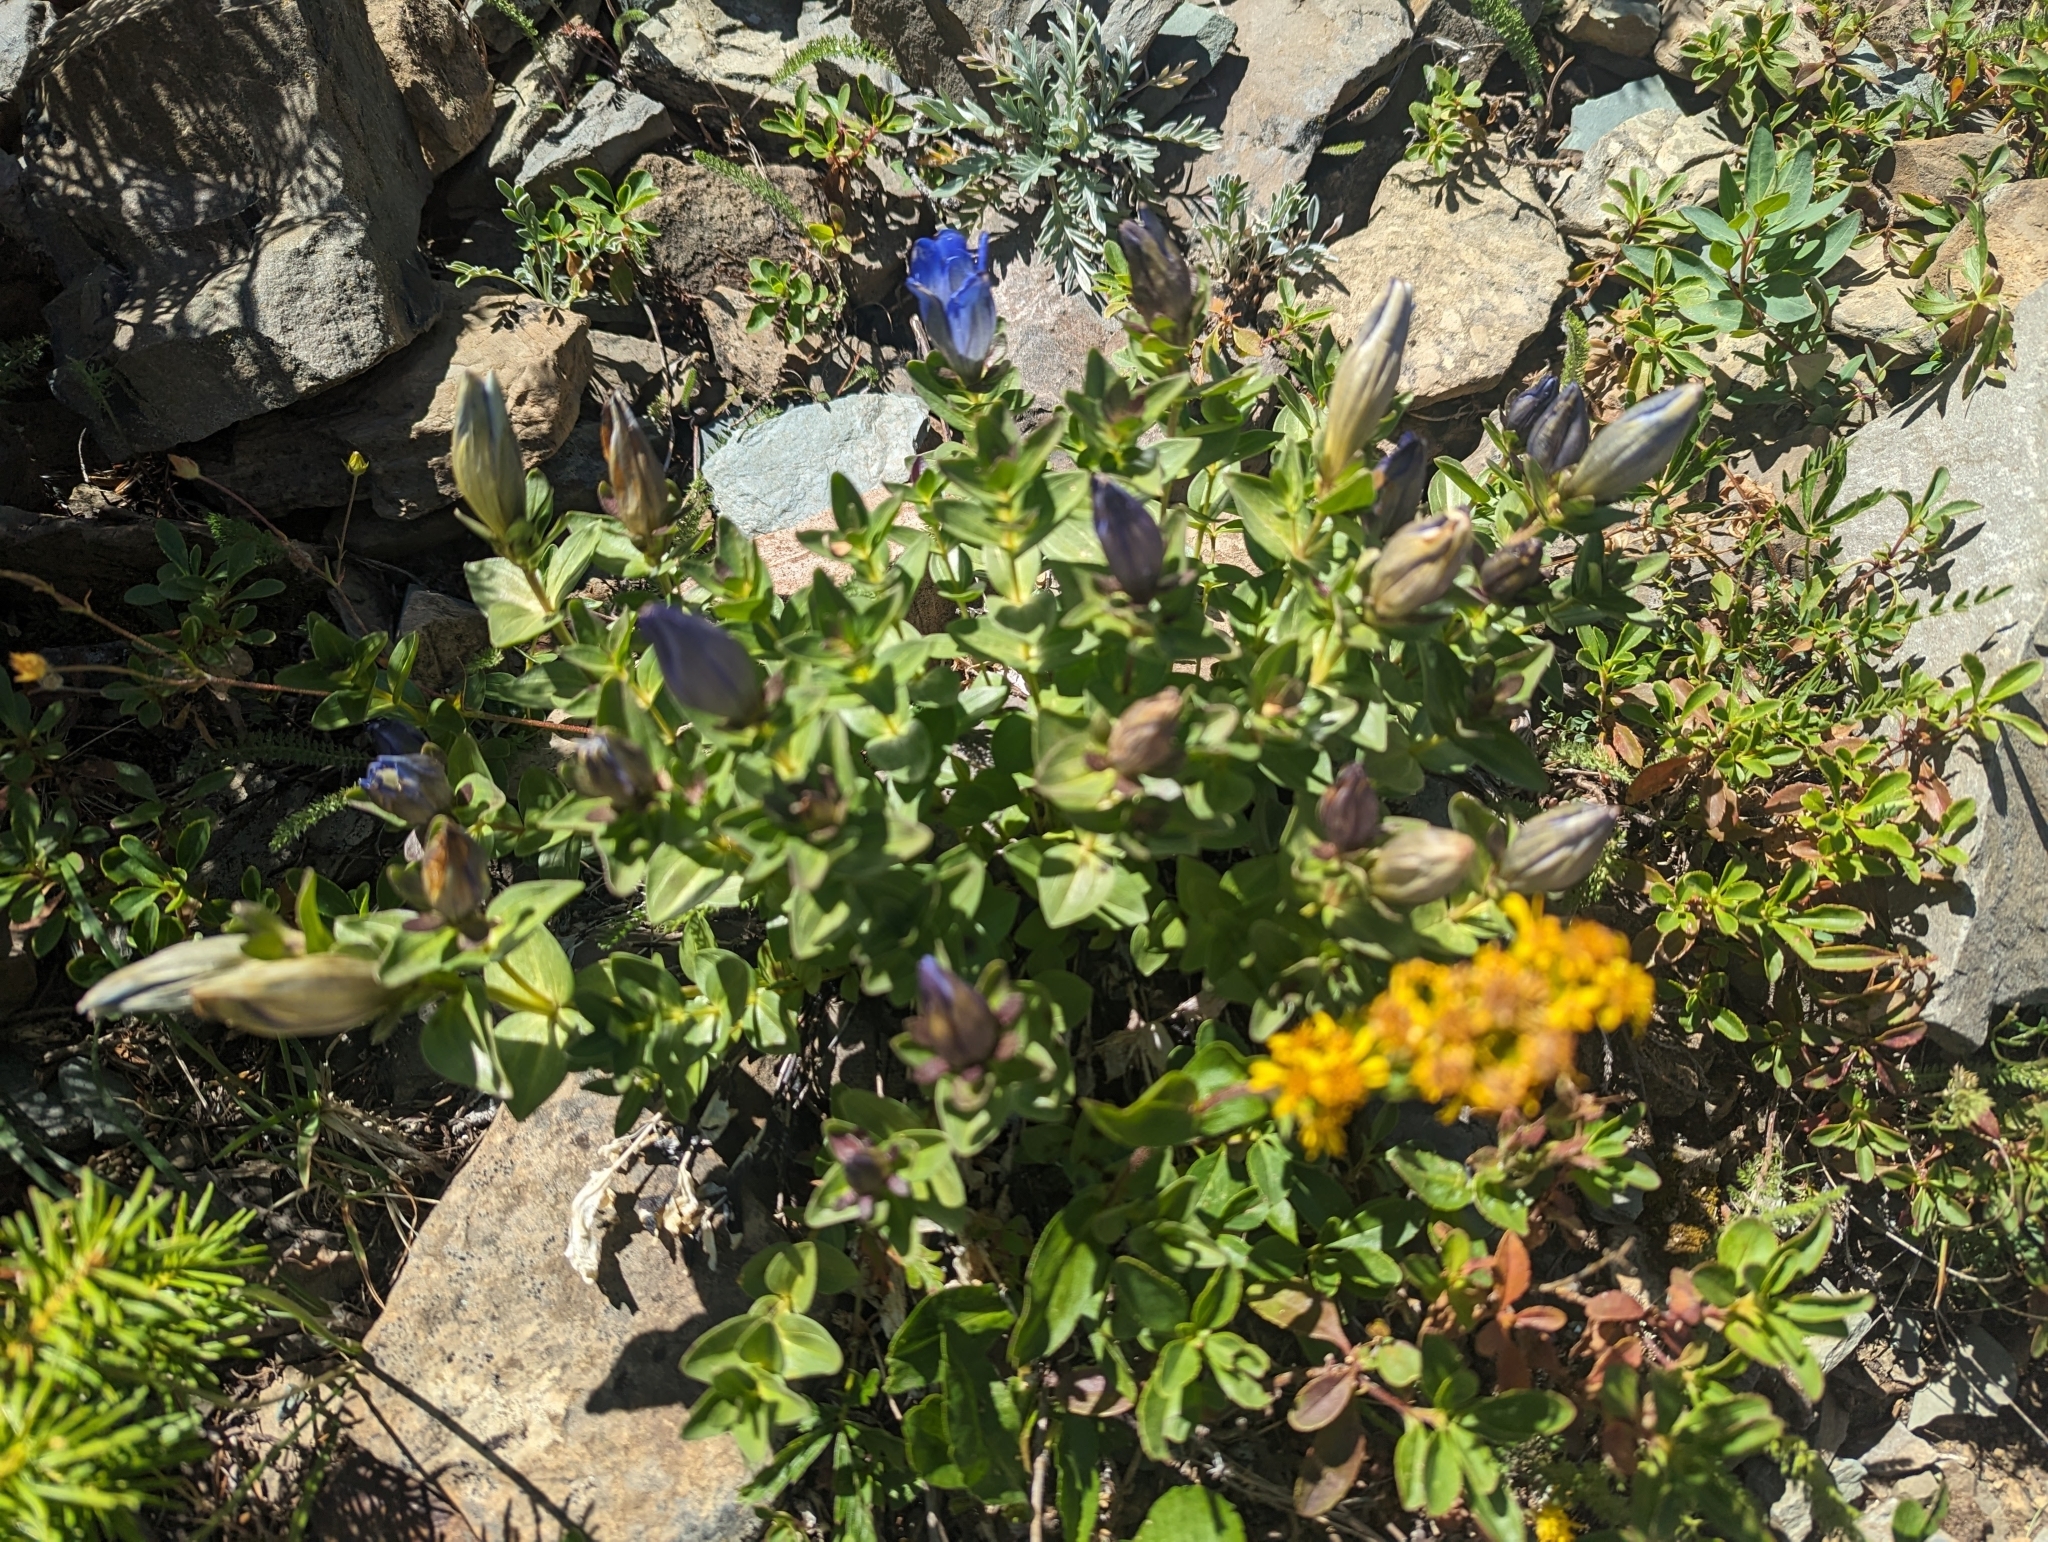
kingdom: Plantae
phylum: Tracheophyta
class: Magnoliopsida
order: Gentianales
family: Gentianaceae
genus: Gentiana
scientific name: Gentiana calycosa
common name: Rainier pleated gentian
